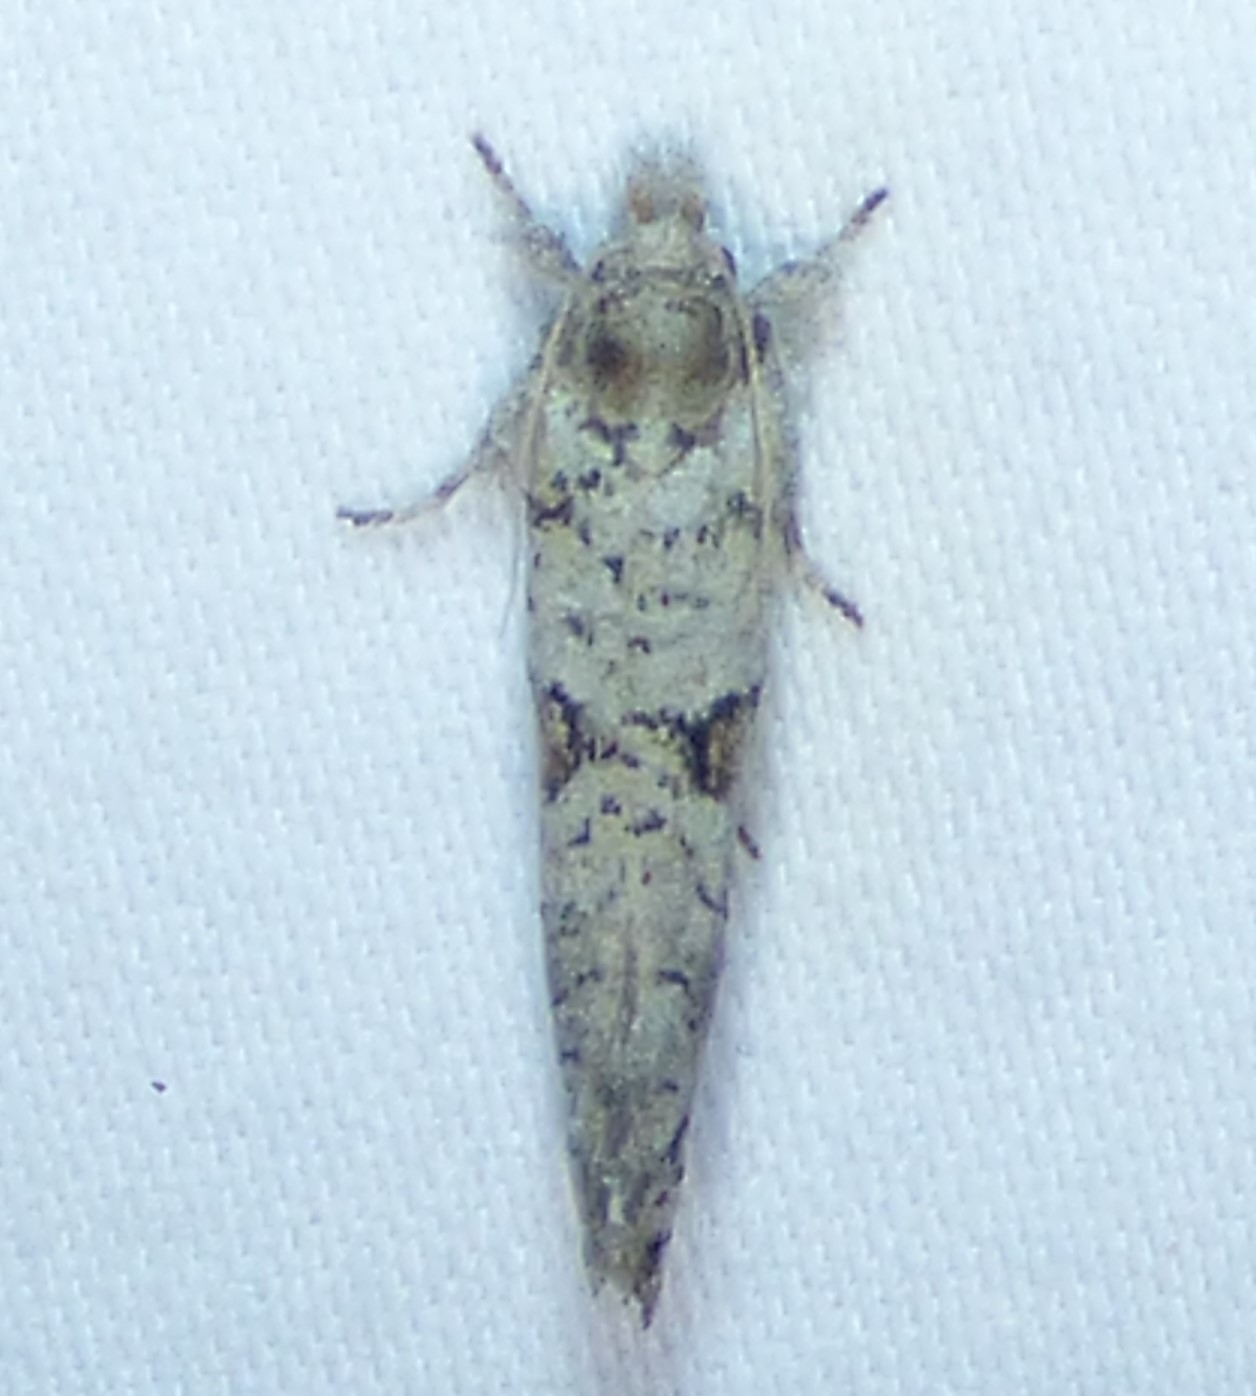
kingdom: Animalia
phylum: Arthropoda
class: Insecta
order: Lepidoptera
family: Tineidae
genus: Acrolophus
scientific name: Acrolophus piger
